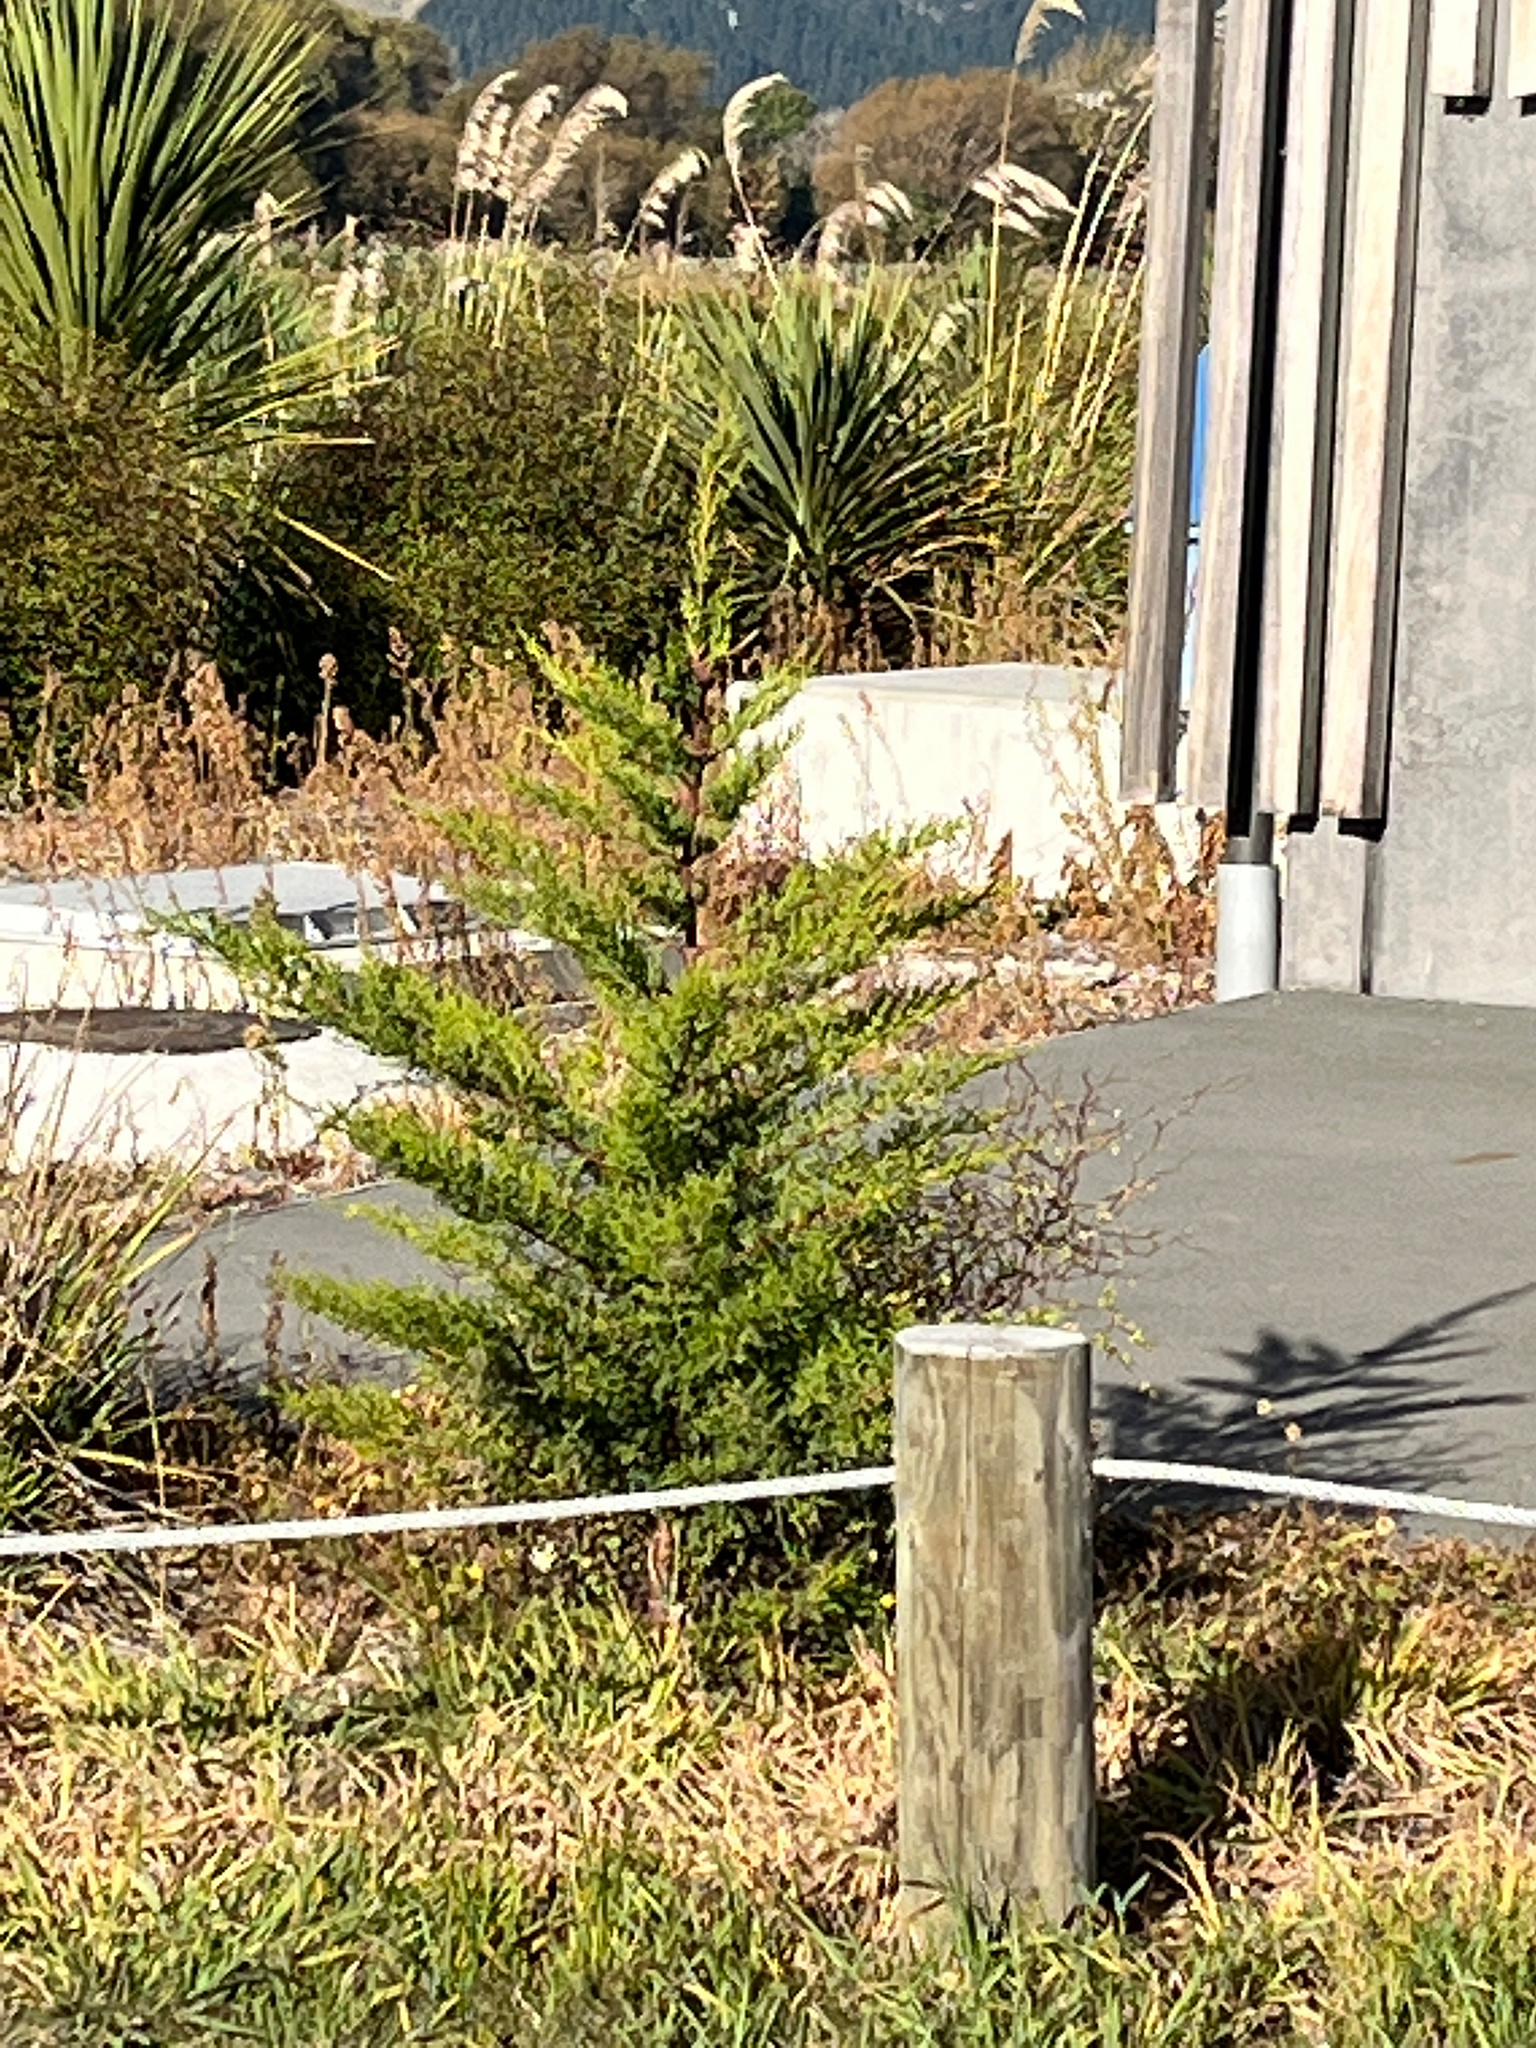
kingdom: Plantae
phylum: Tracheophyta
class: Pinopsida
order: Pinales
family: Cupressaceae
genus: Cupressus
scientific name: Cupressus macrocarpa
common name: Monterey cypress
